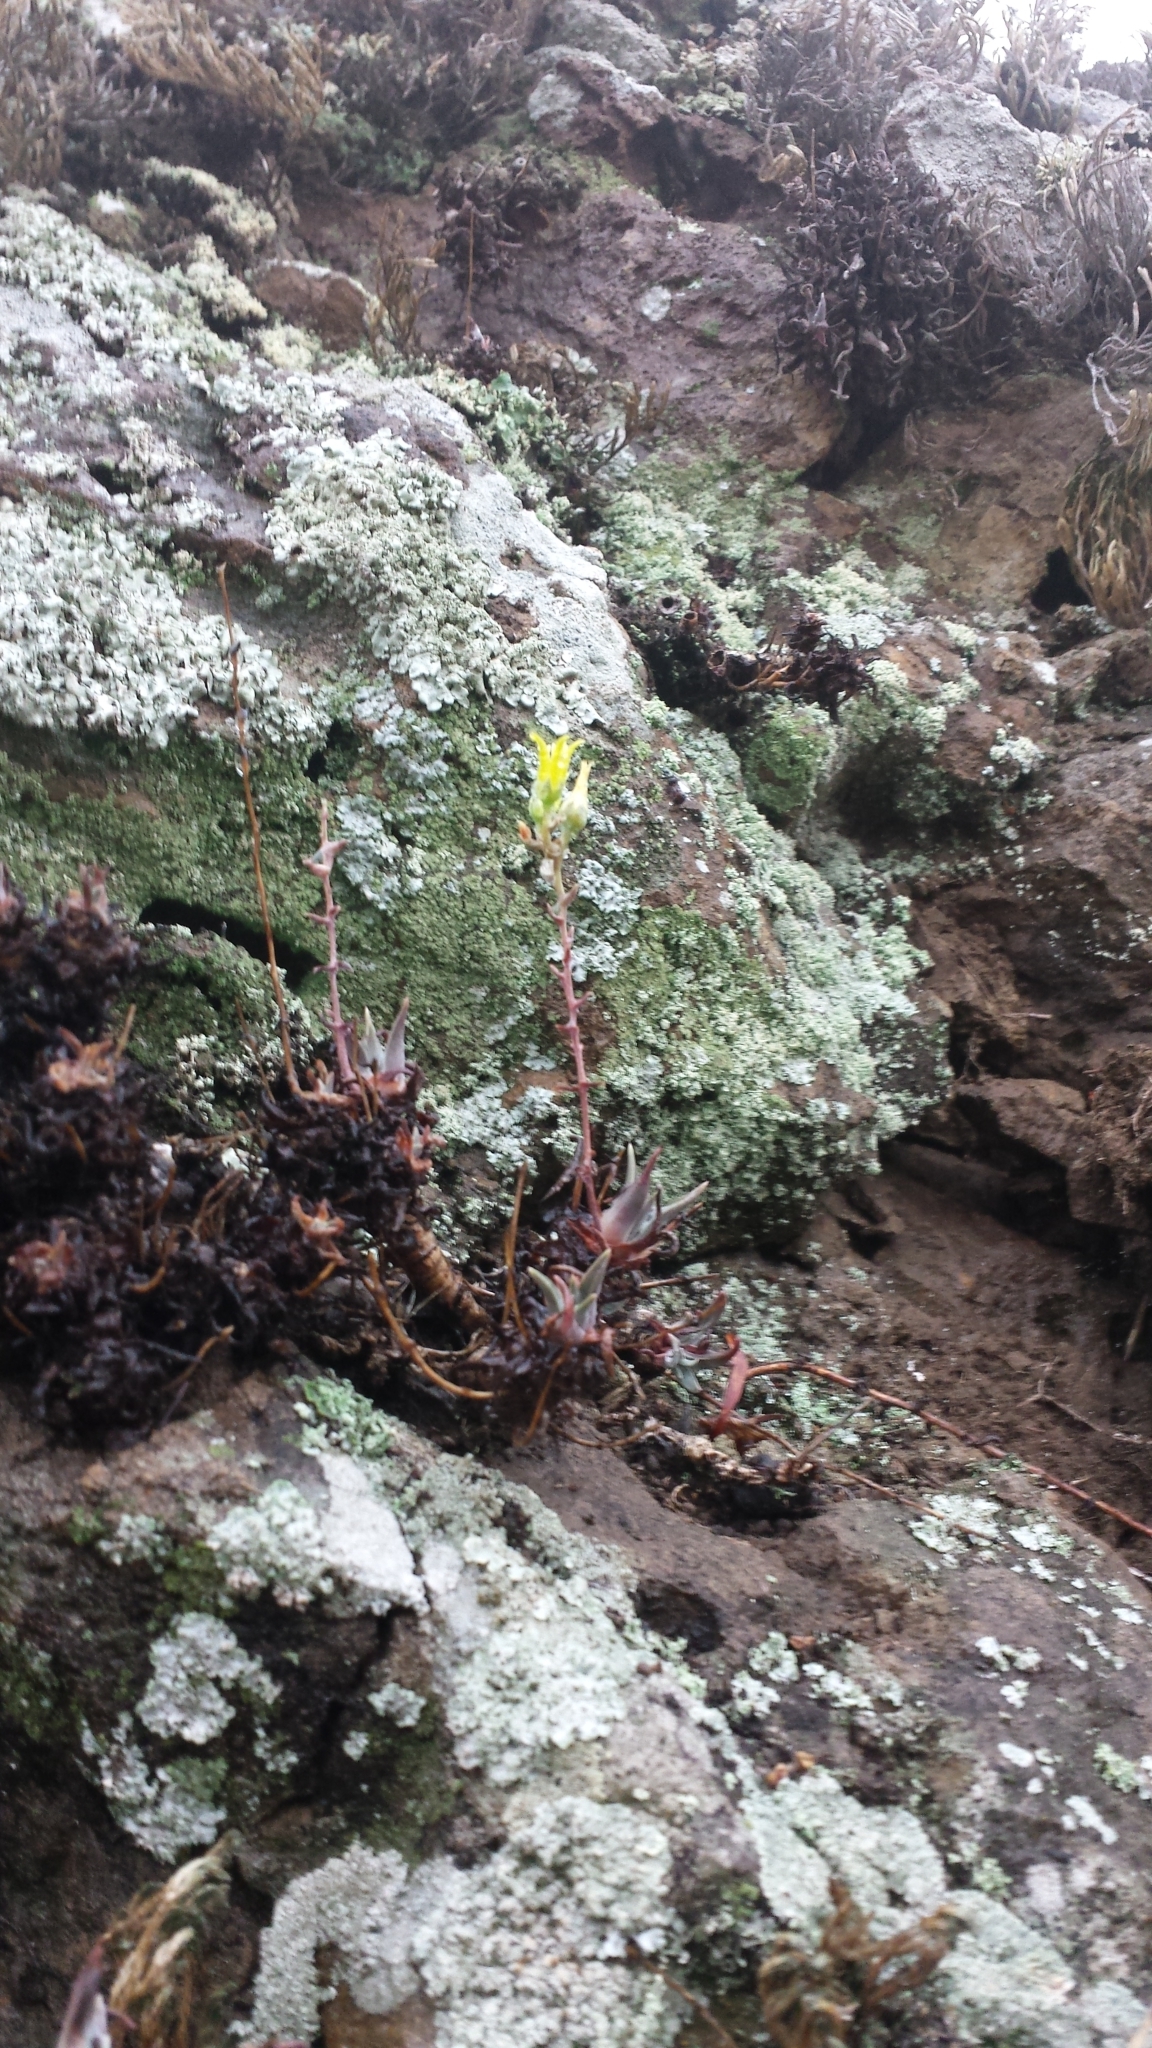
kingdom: Plantae
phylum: Tracheophyta
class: Magnoliopsida
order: Saxifragales
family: Crassulaceae
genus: Dudleya
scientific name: Dudleya verityi
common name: Verity dudleya
